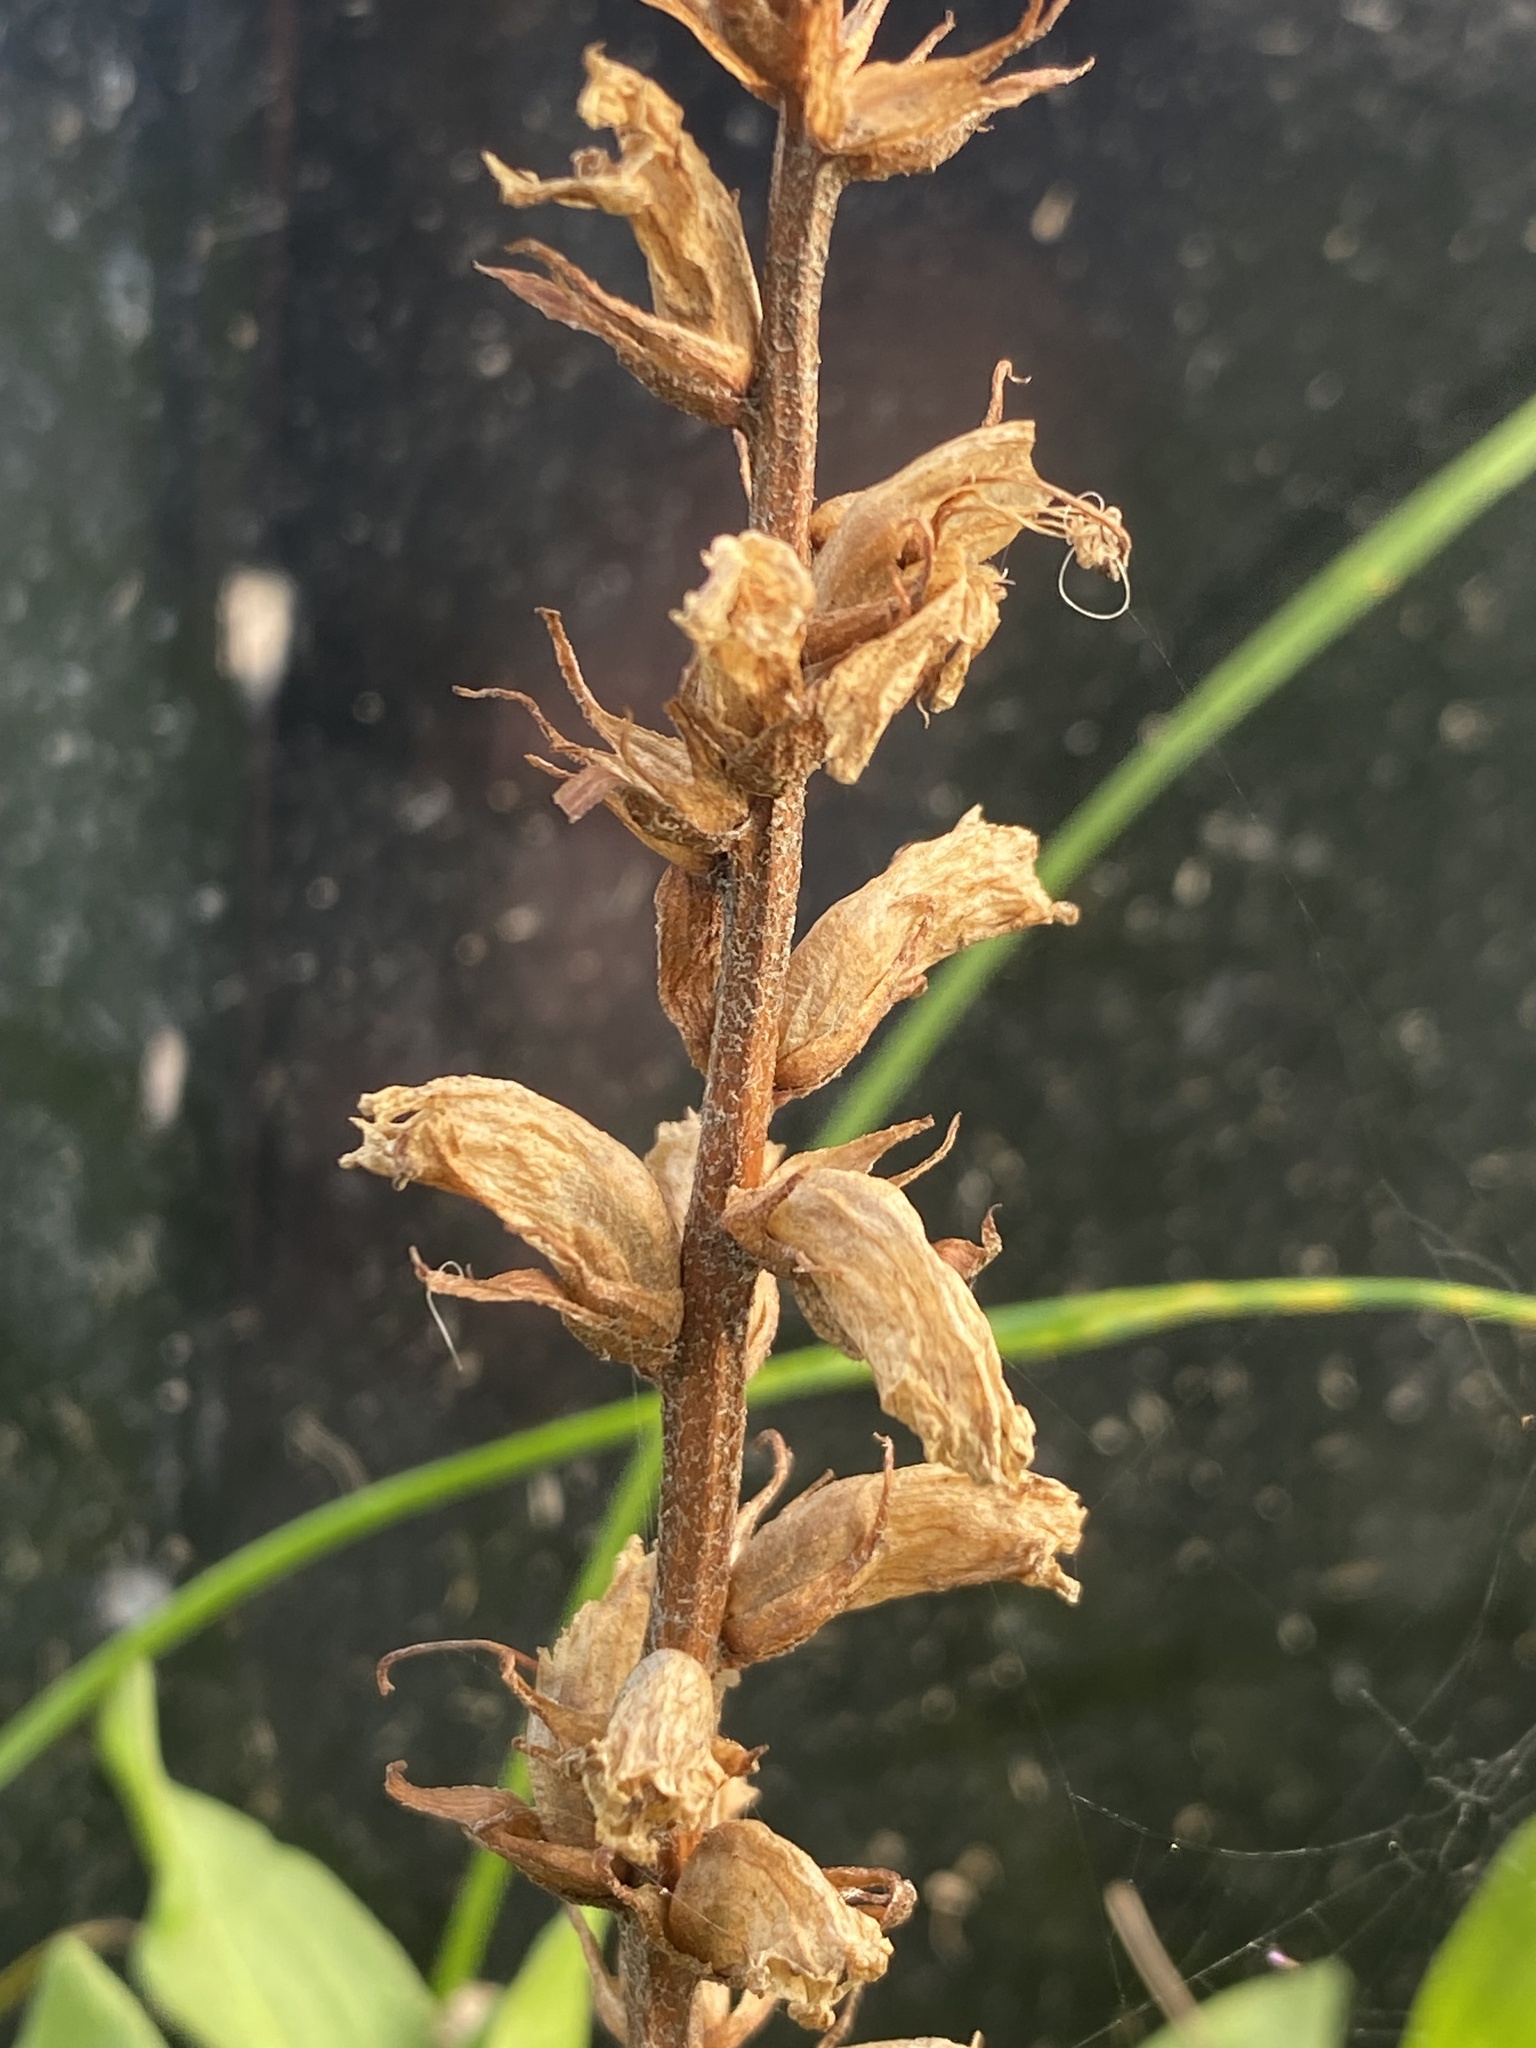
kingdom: Plantae
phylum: Tracheophyta
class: Magnoliopsida
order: Lamiales
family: Orobanchaceae
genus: Orobanche
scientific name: Orobanche minor
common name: Common broomrape
